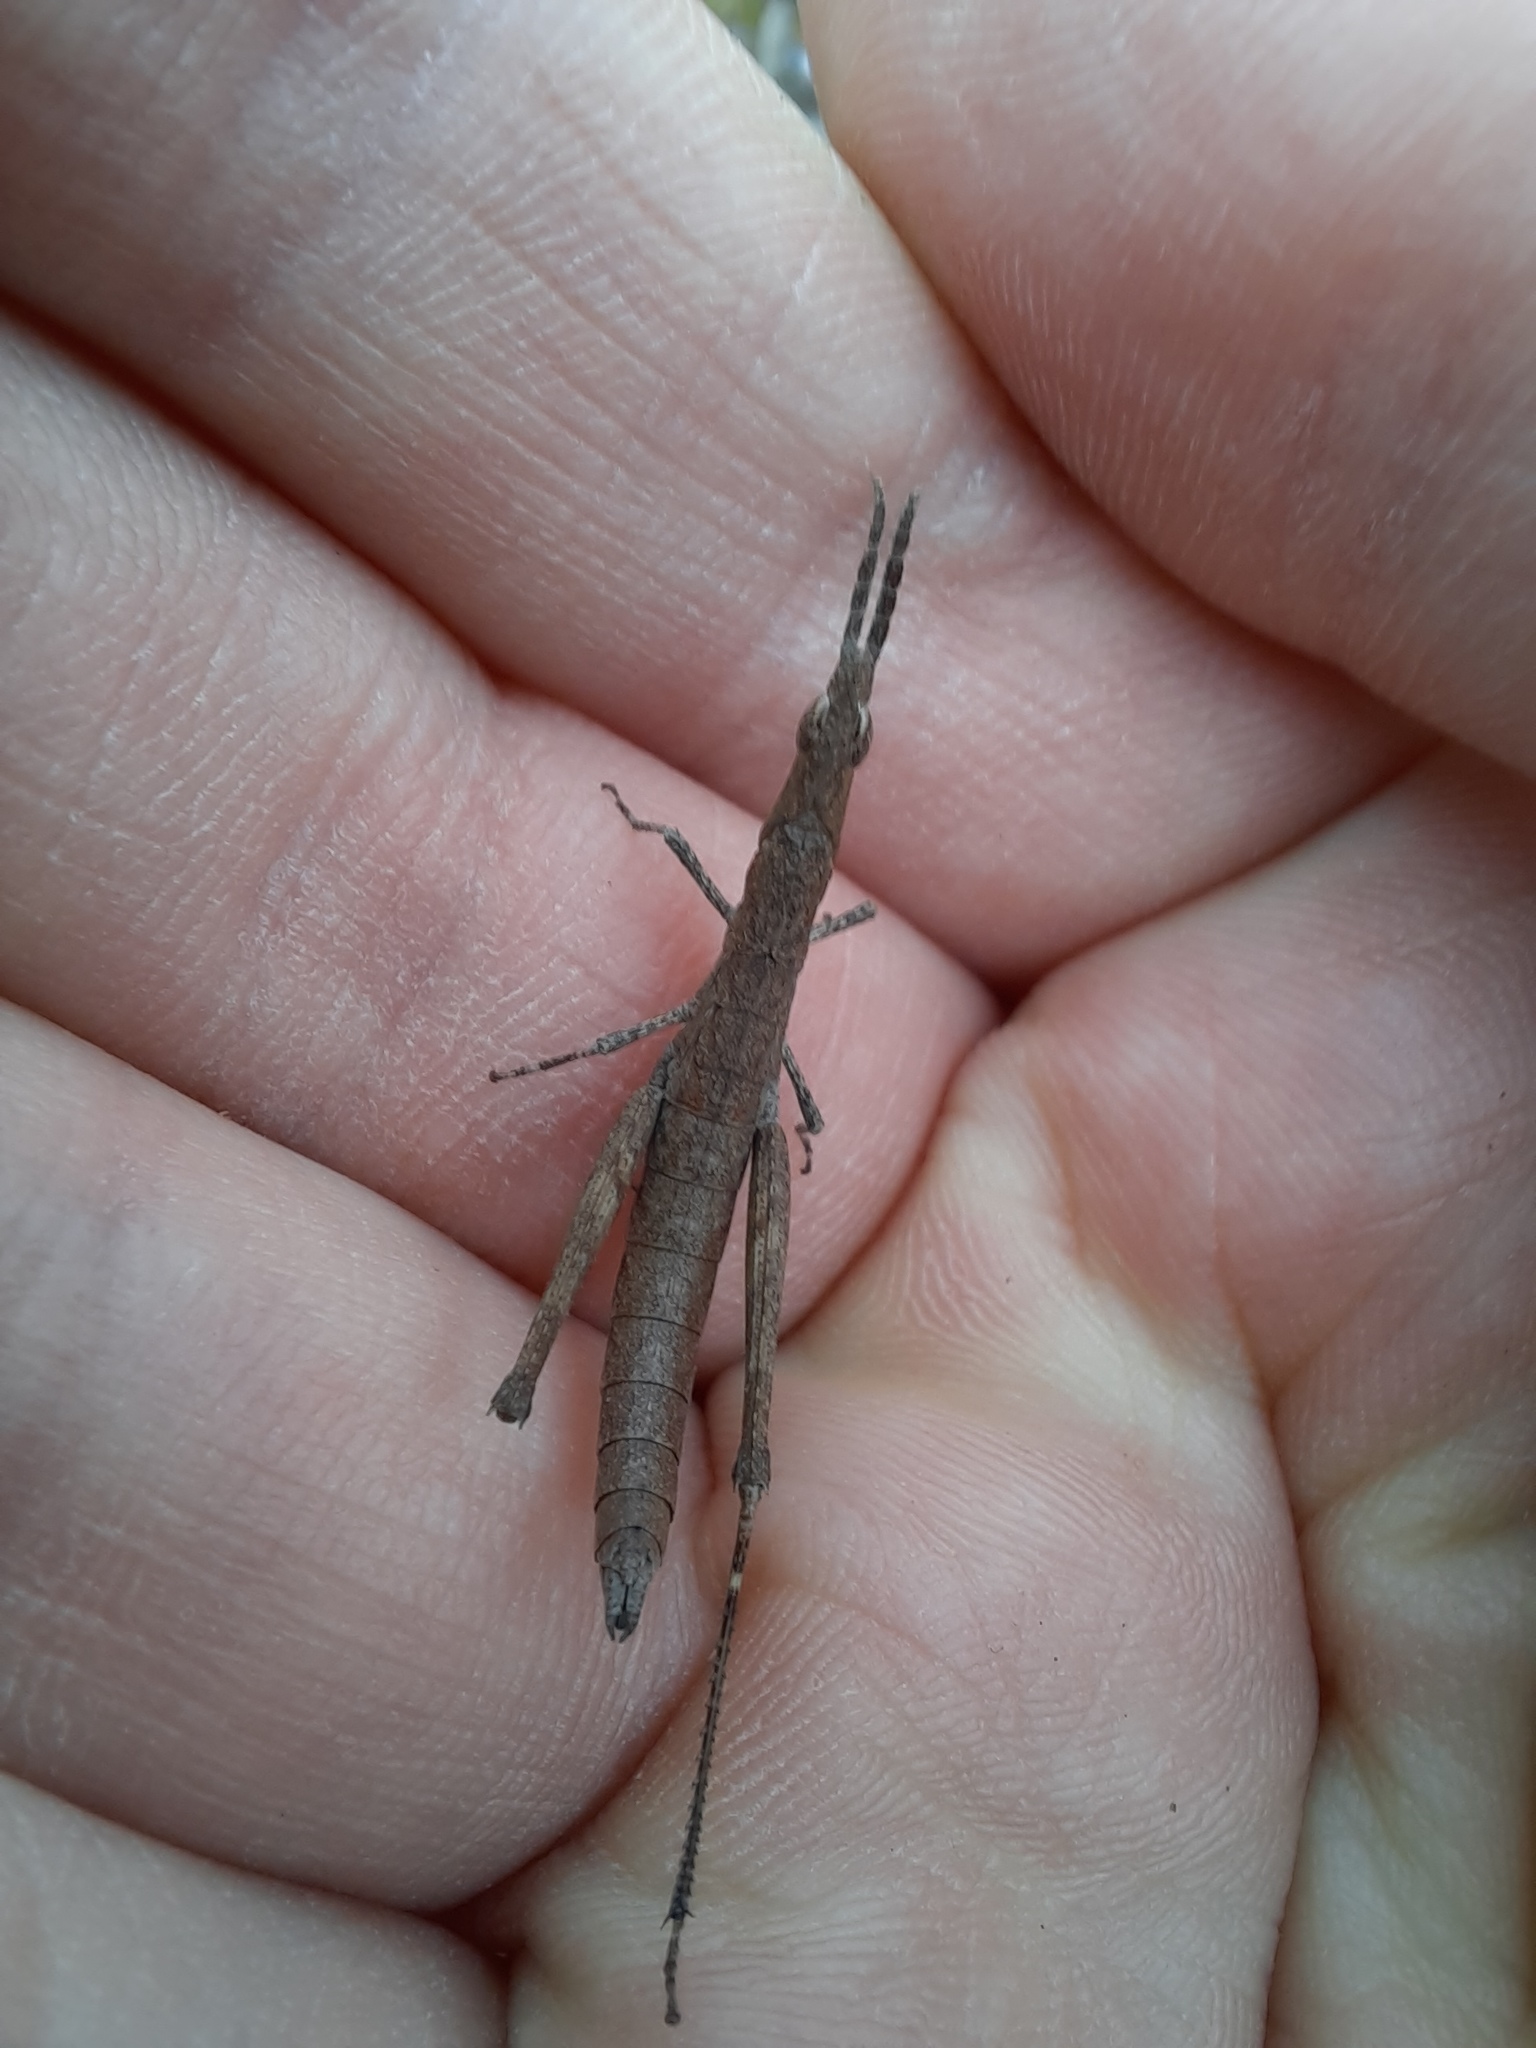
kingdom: Animalia
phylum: Arthropoda
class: Insecta
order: Orthoptera
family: Morabidae
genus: Vandiemenella
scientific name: Vandiemenella viatica
